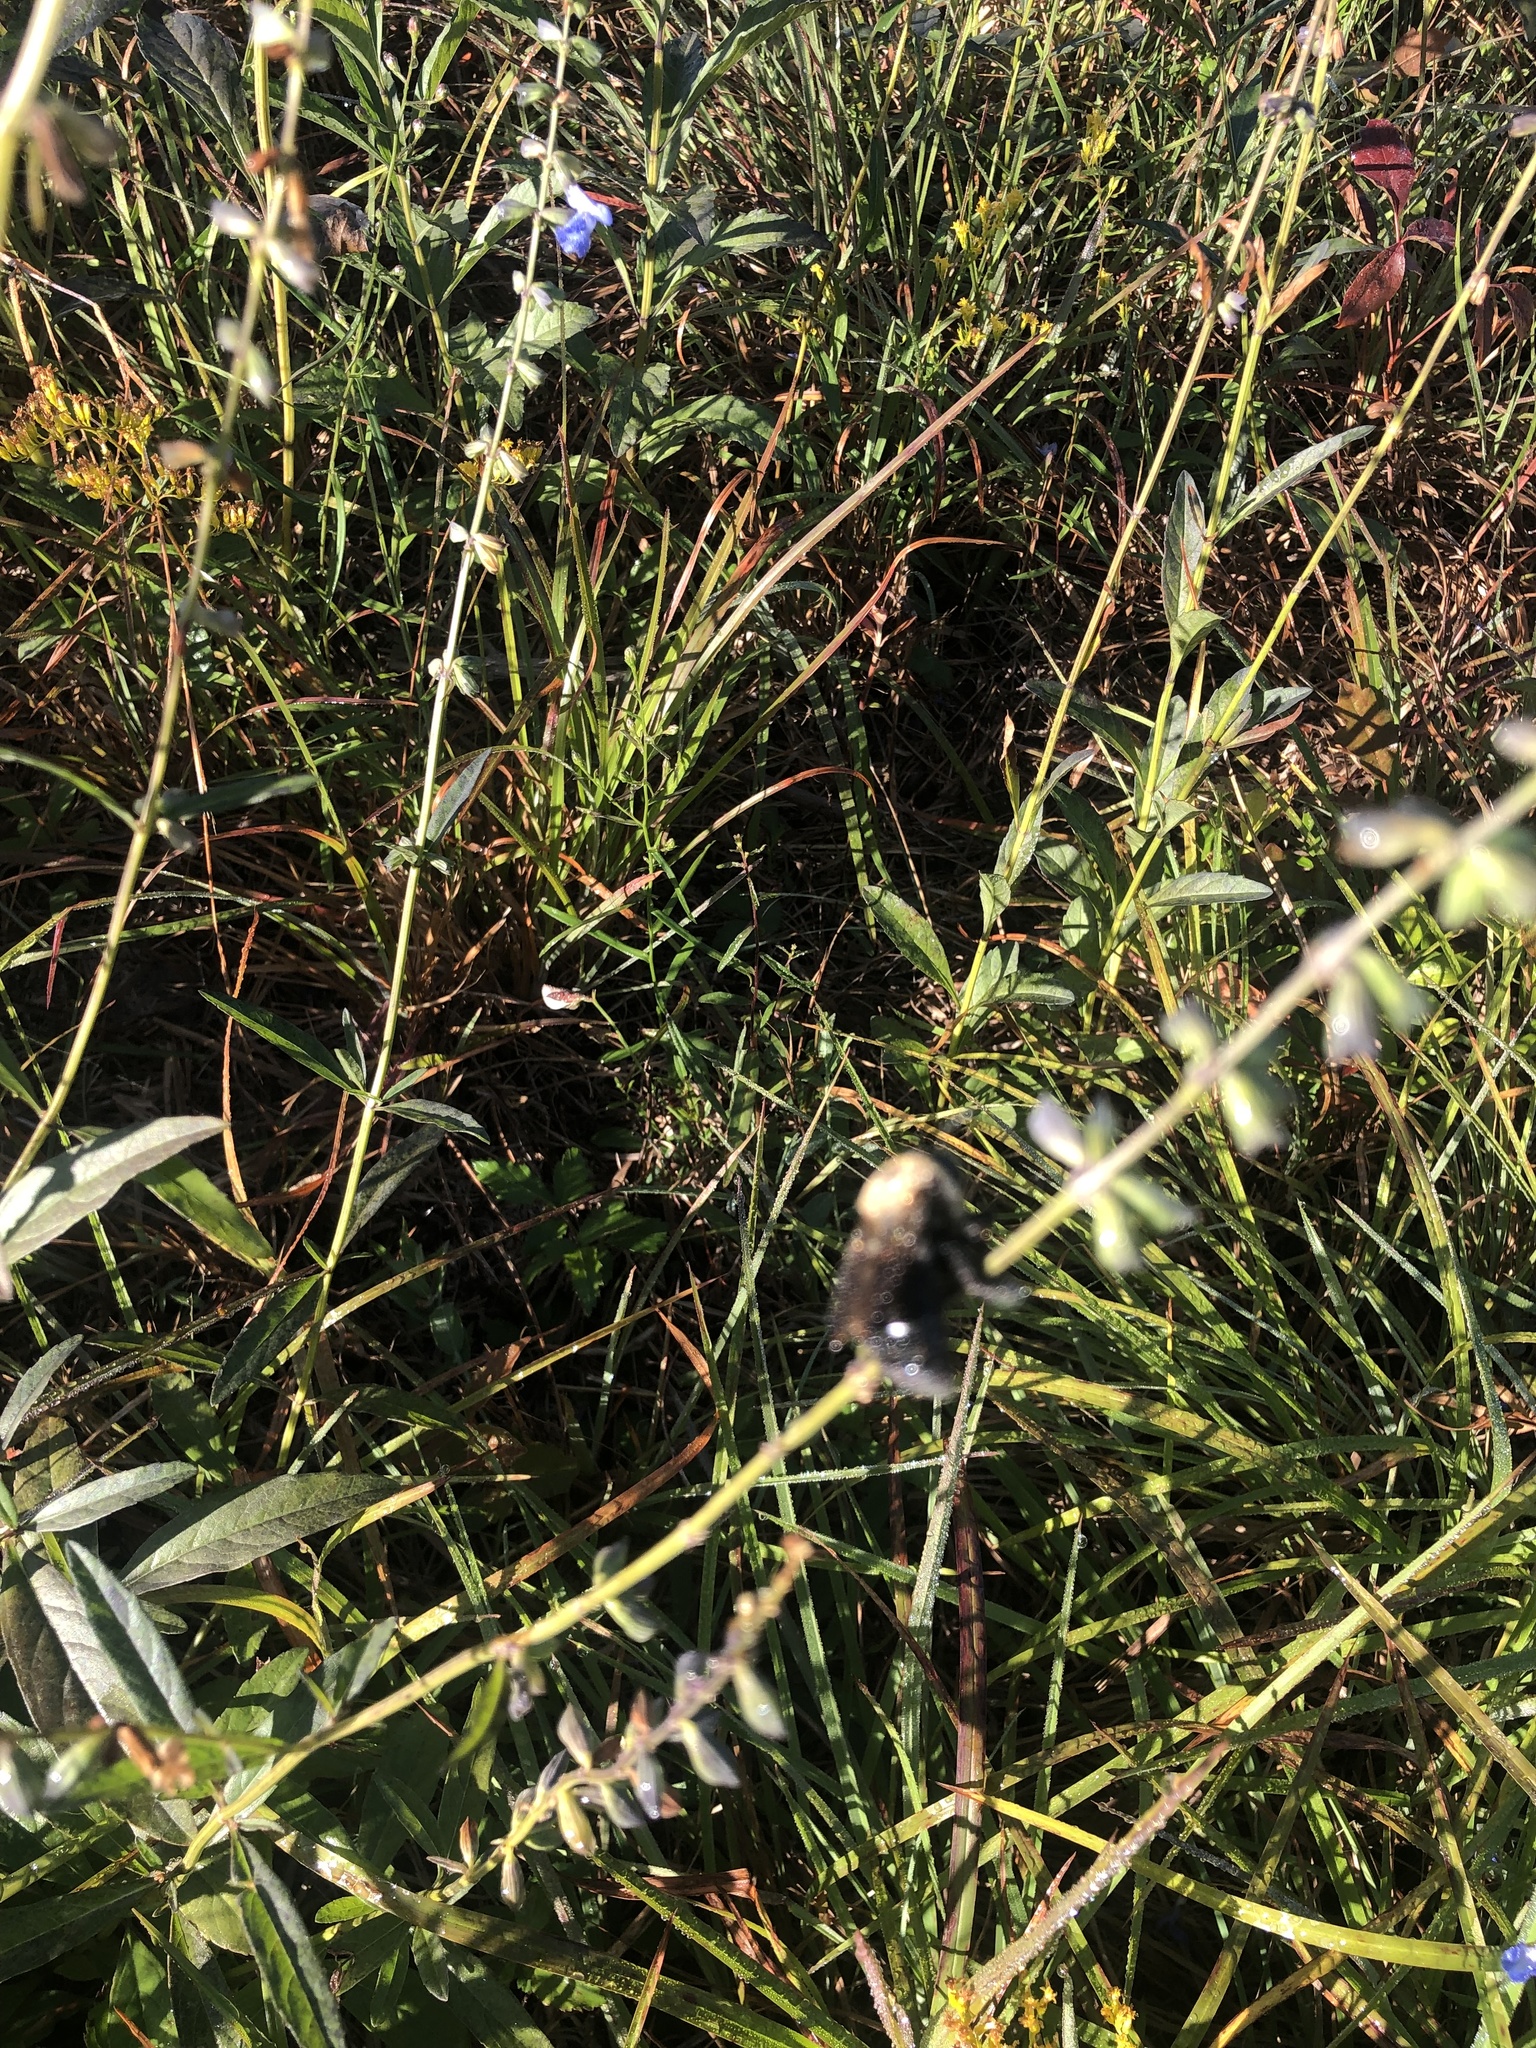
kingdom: Animalia
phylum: Arthropoda
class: Insecta
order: Hymenoptera
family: Apidae
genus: Xylocopa
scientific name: Xylocopa virginica
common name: Carpenter bee
